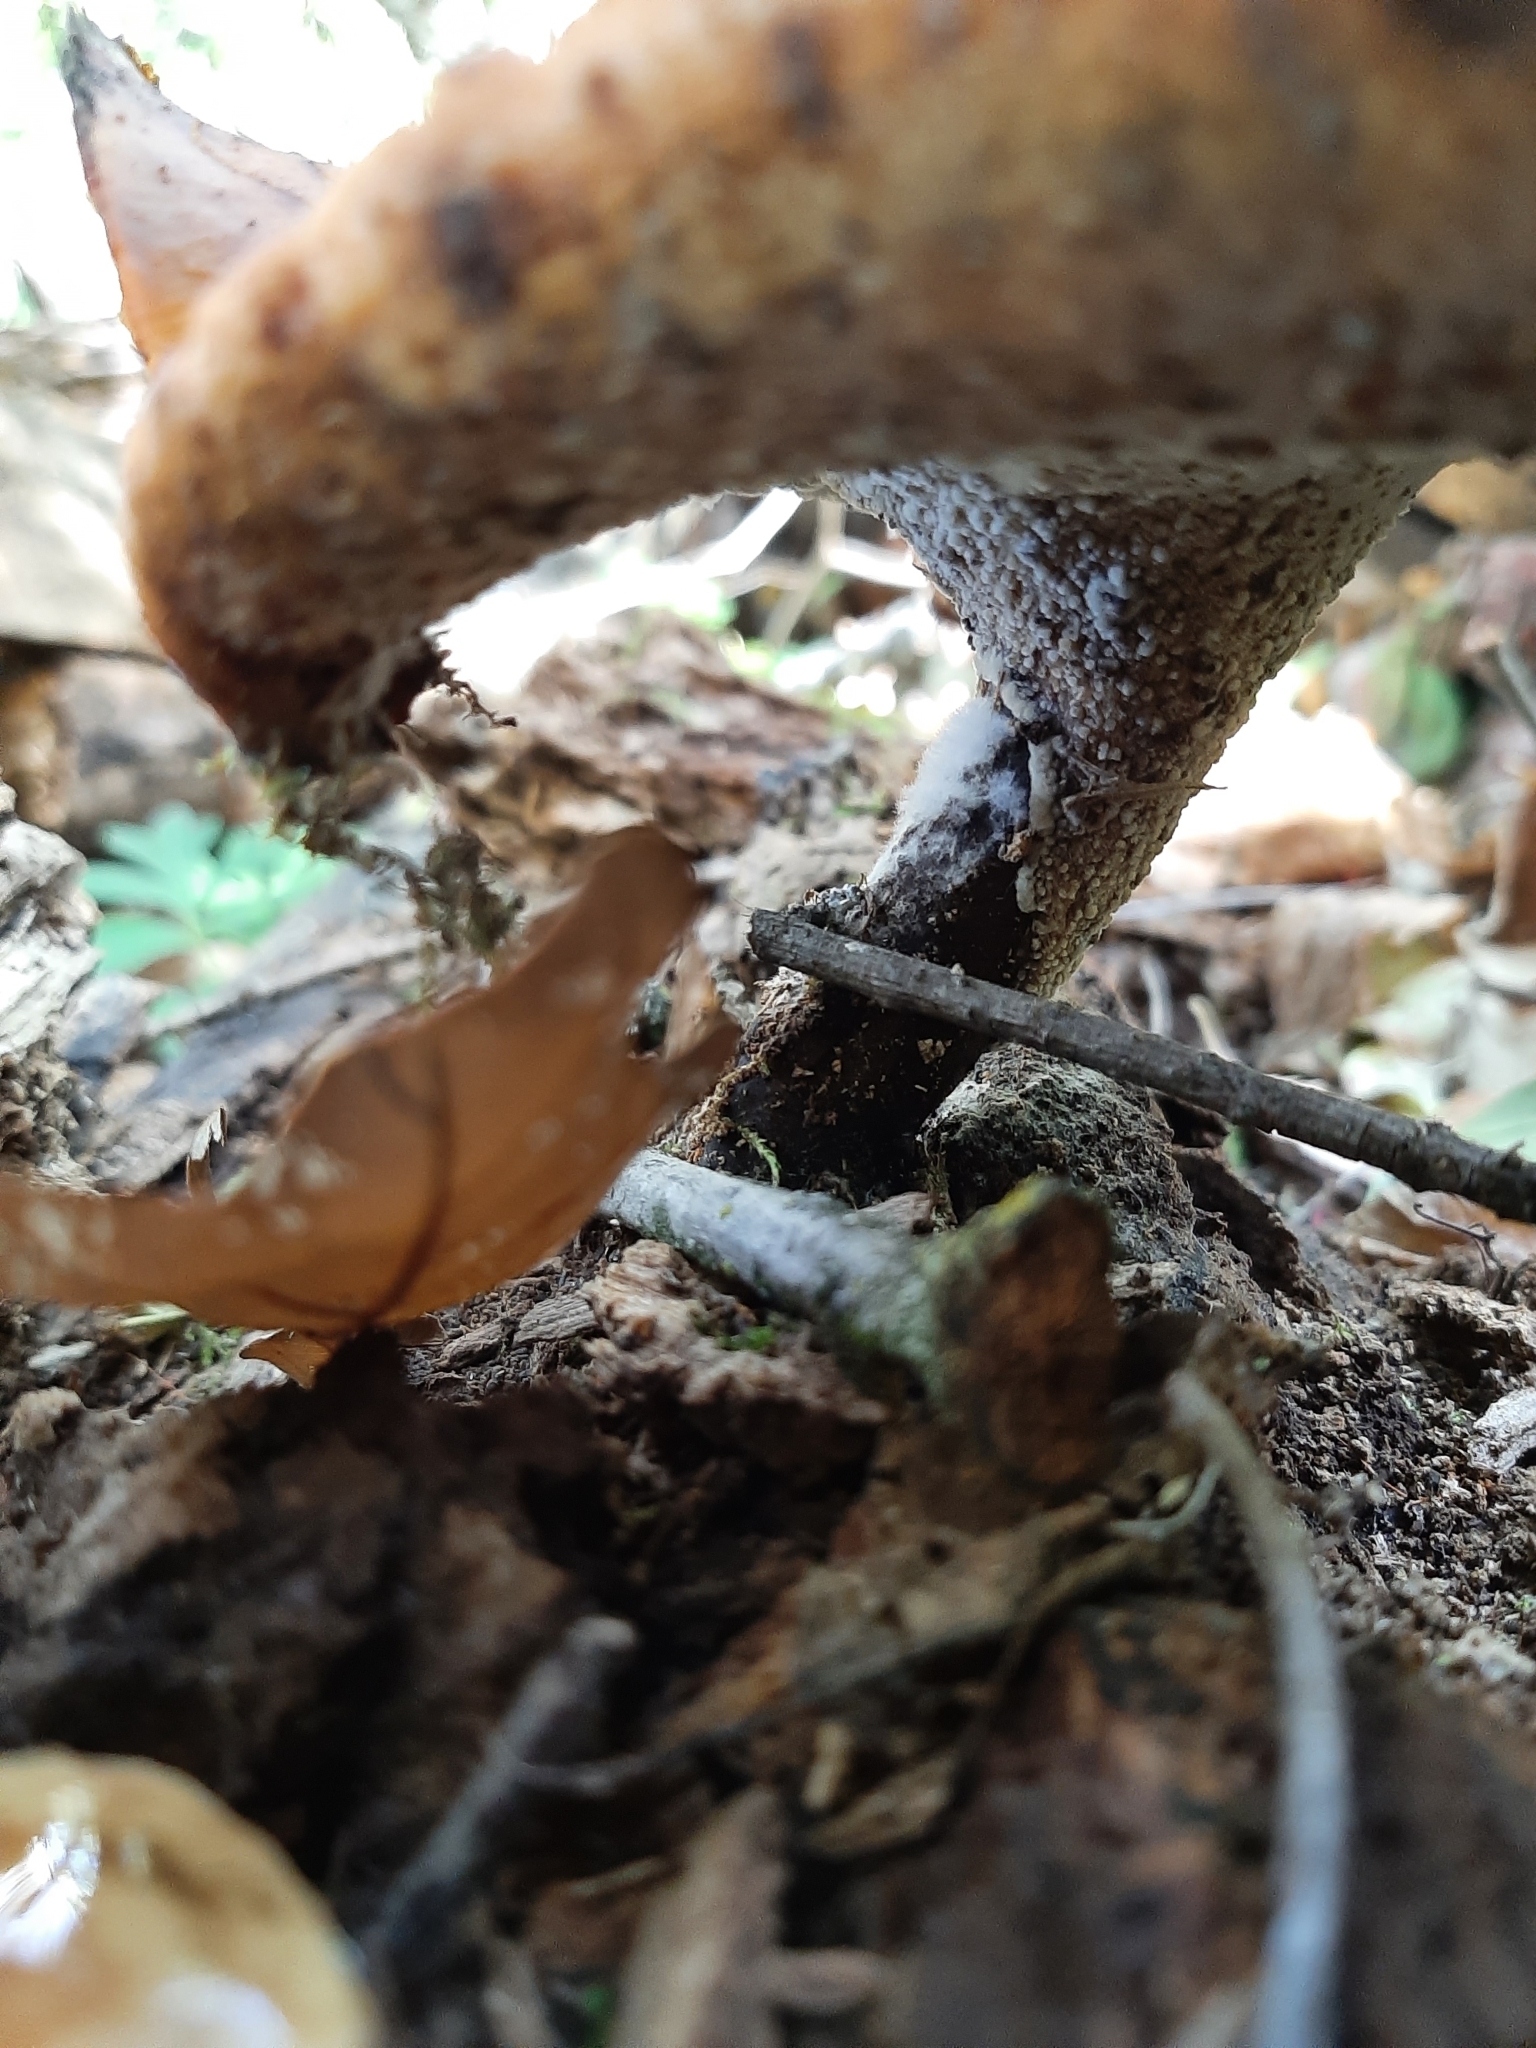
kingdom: Fungi
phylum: Basidiomycota
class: Agaricomycetes
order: Polyporales
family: Polyporaceae
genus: Picipes
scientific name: Picipes badius
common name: Bay polypore
